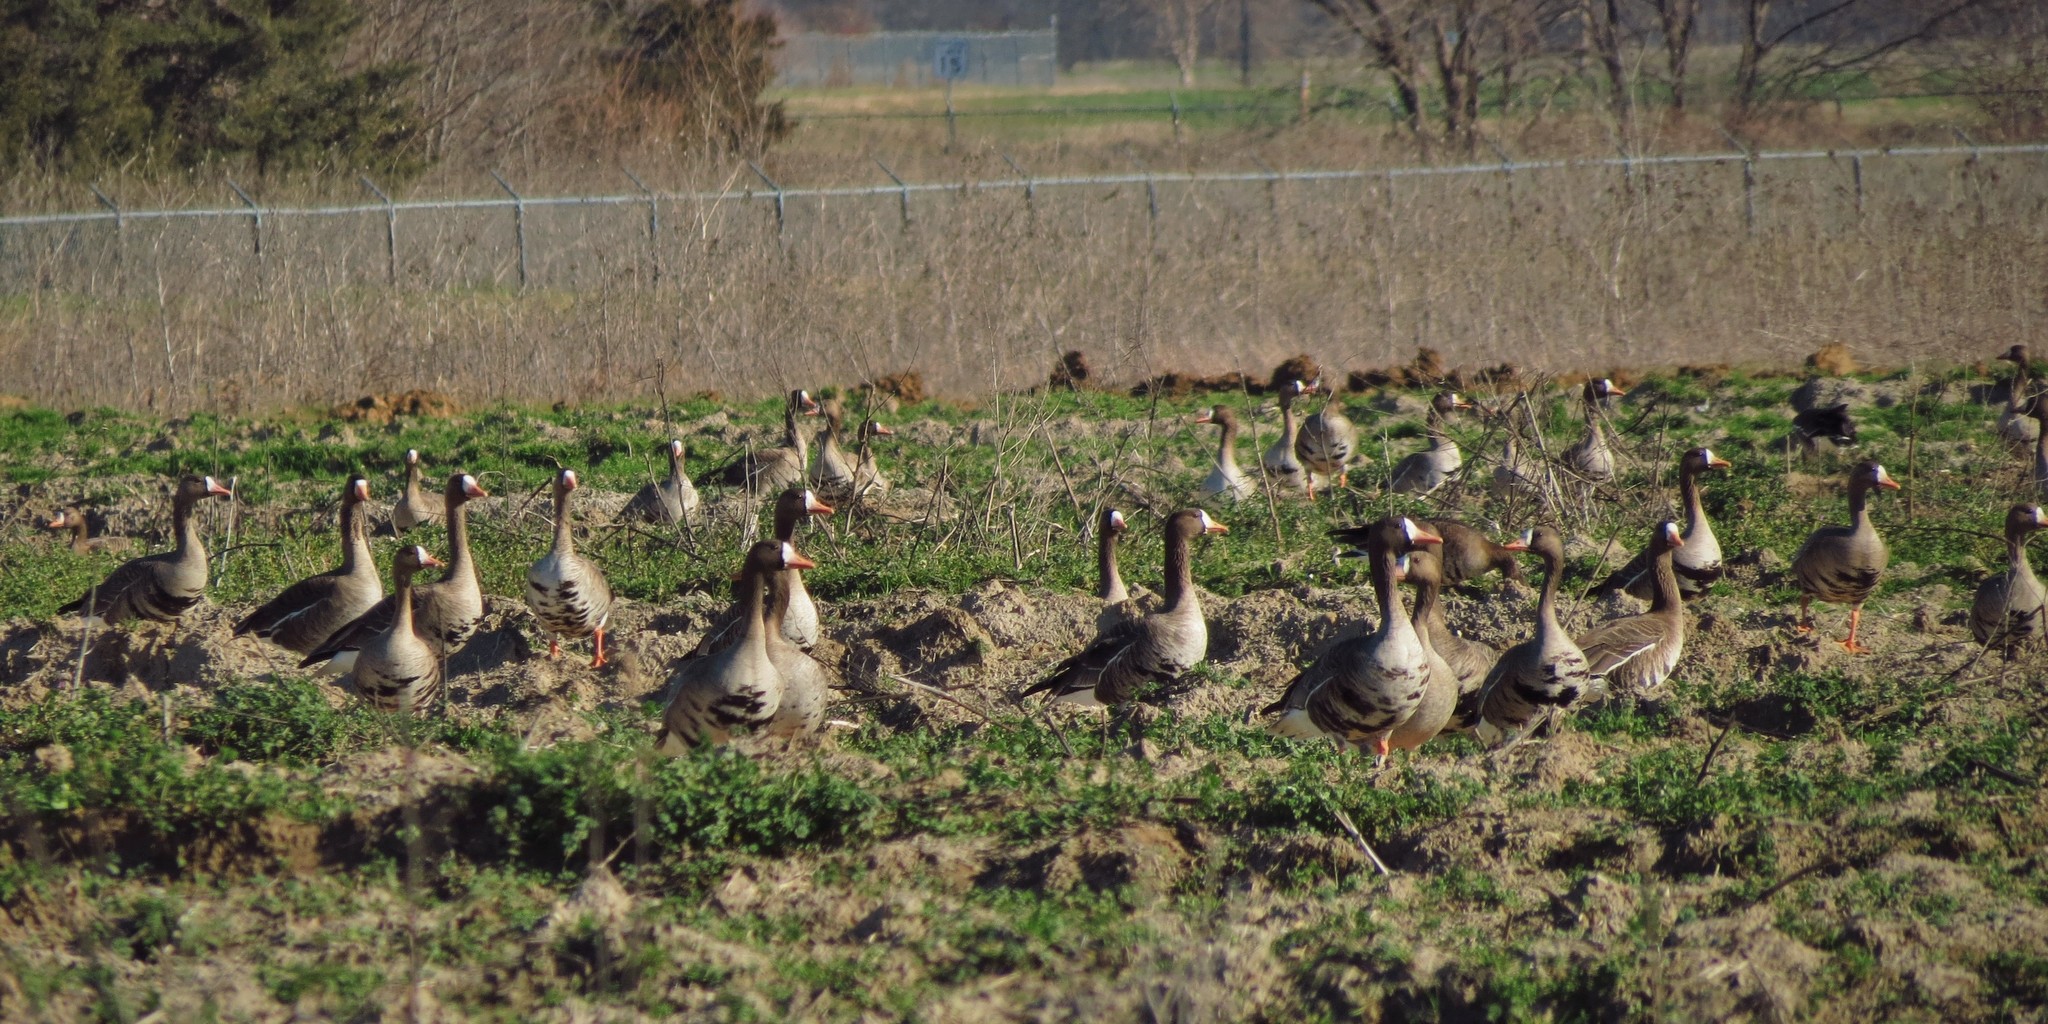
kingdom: Animalia
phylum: Chordata
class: Aves
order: Anseriformes
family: Anatidae
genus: Anser
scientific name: Anser albifrons
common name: Greater white-fronted goose
